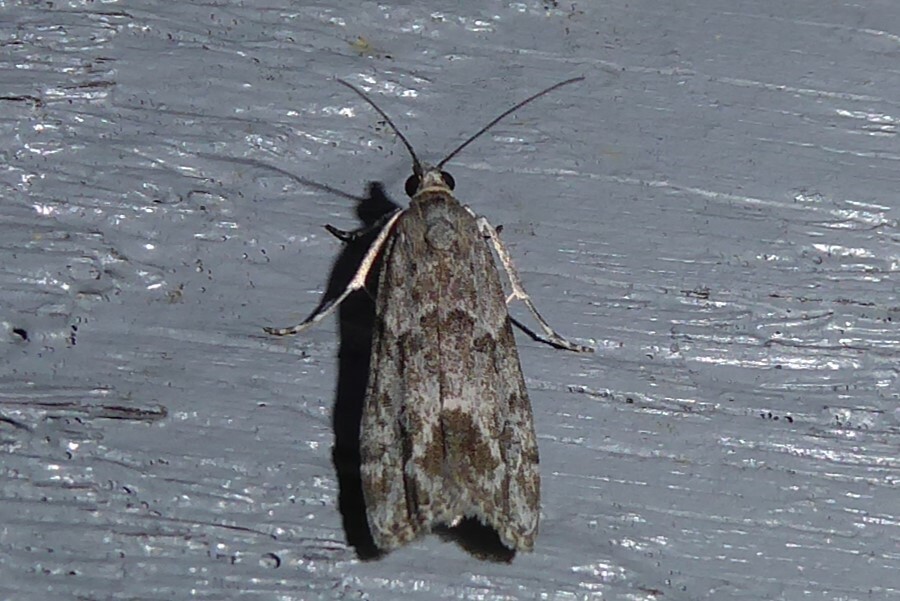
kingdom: Animalia
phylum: Arthropoda
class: Insecta
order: Lepidoptera
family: Crambidae
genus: Eudonia
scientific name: Eudonia rakaiensis
